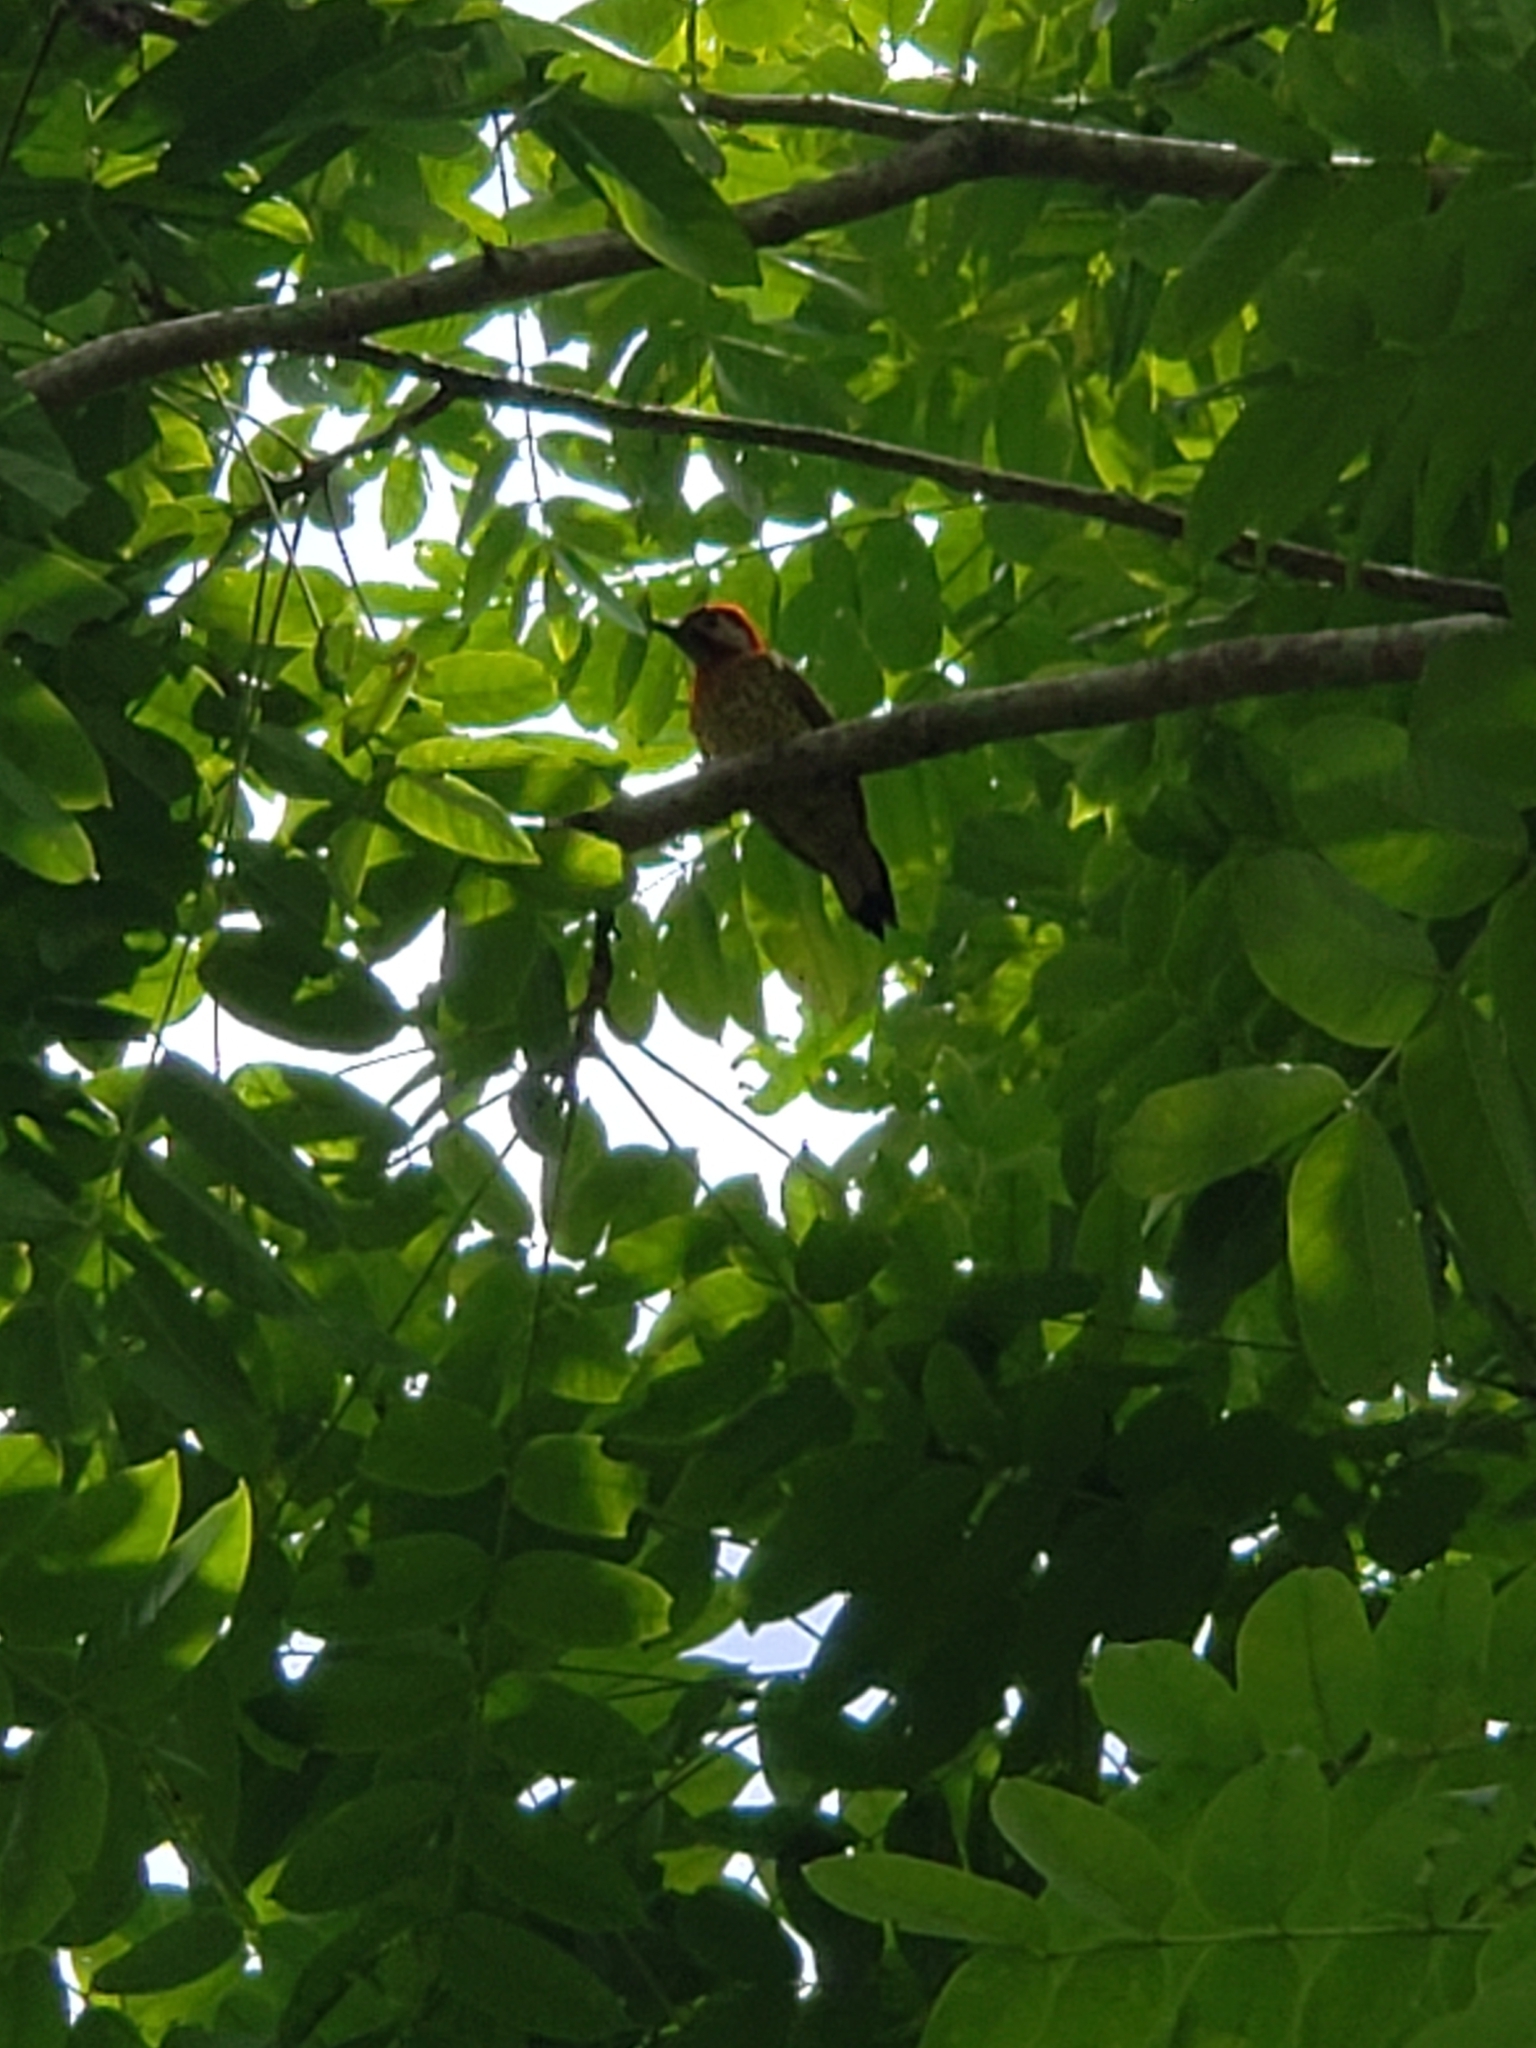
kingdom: Animalia
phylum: Chordata
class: Aves
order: Piciformes
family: Picidae
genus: Colaptes
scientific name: Colaptes punctigula
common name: Spot-breasted woodpecker
